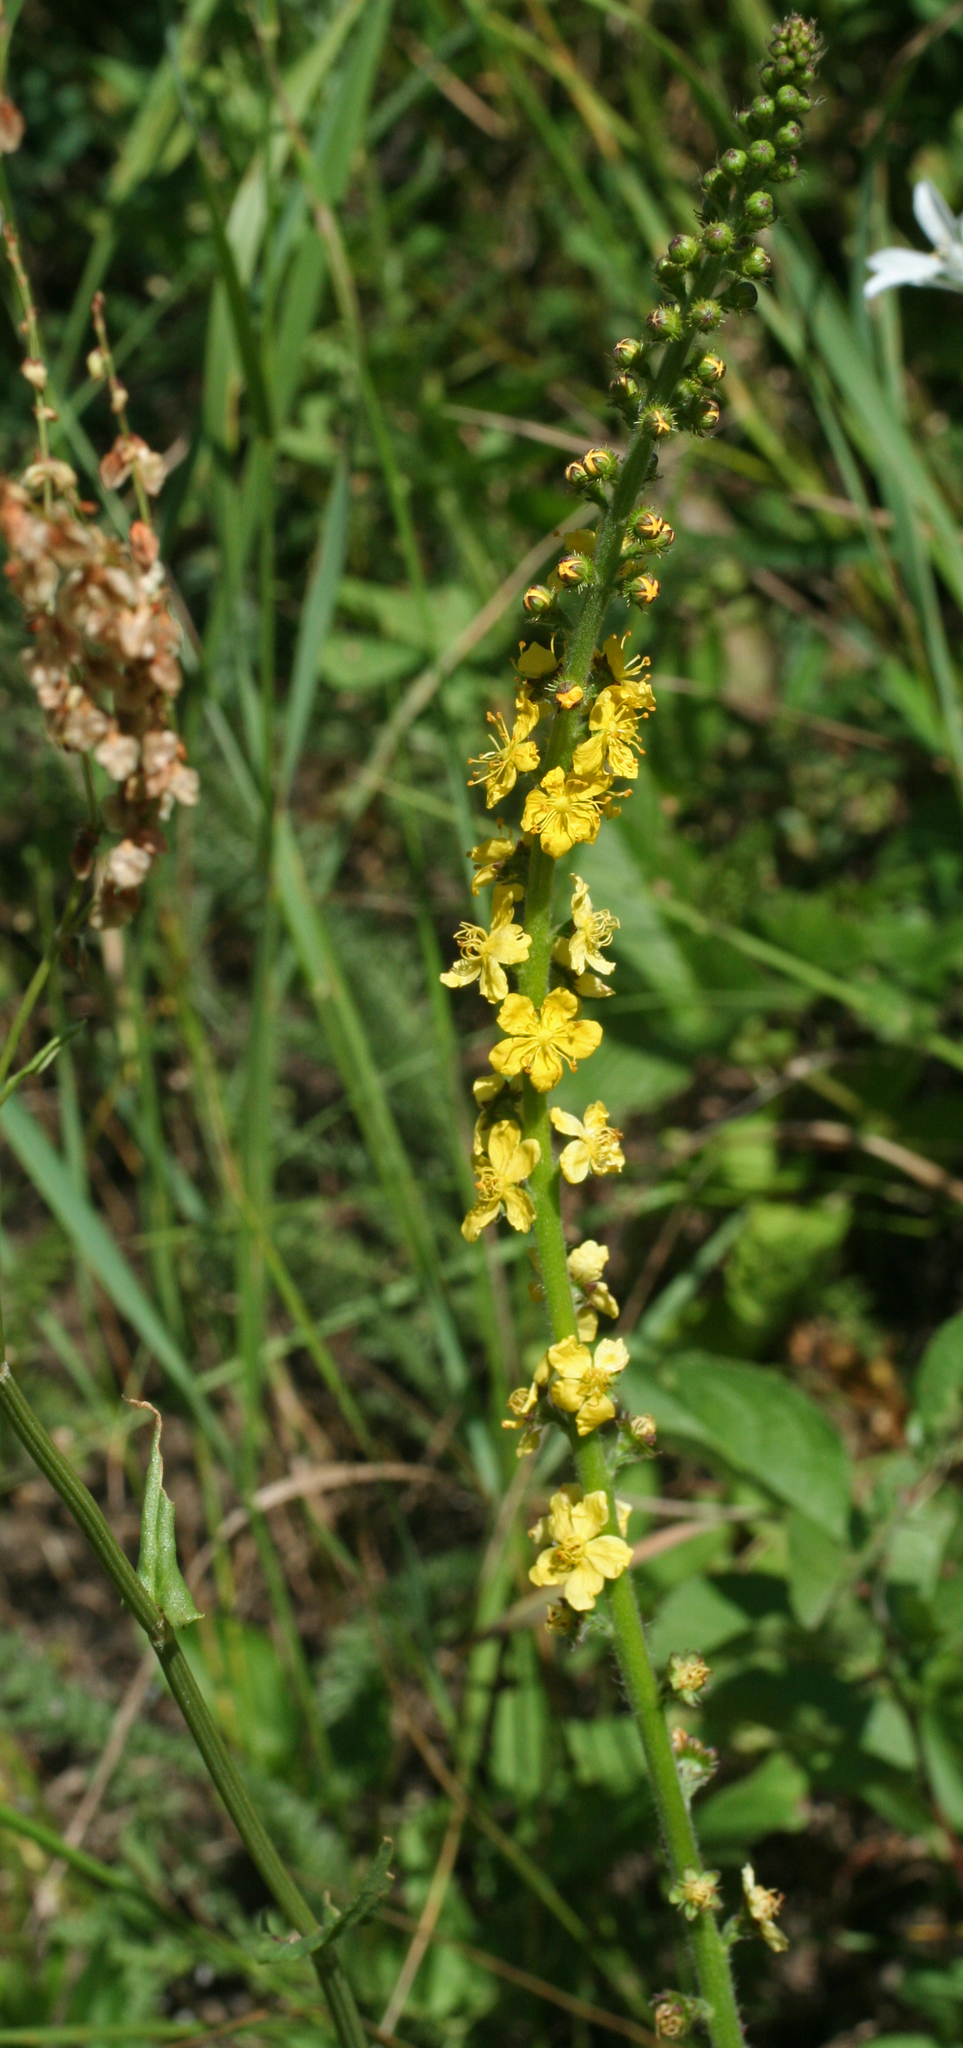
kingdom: Plantae
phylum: Tracheophyta
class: Magnoliopsida
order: Rosales
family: Rosaceae
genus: Agrimonia
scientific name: Agrimonia eupatoria
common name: Agrimony
